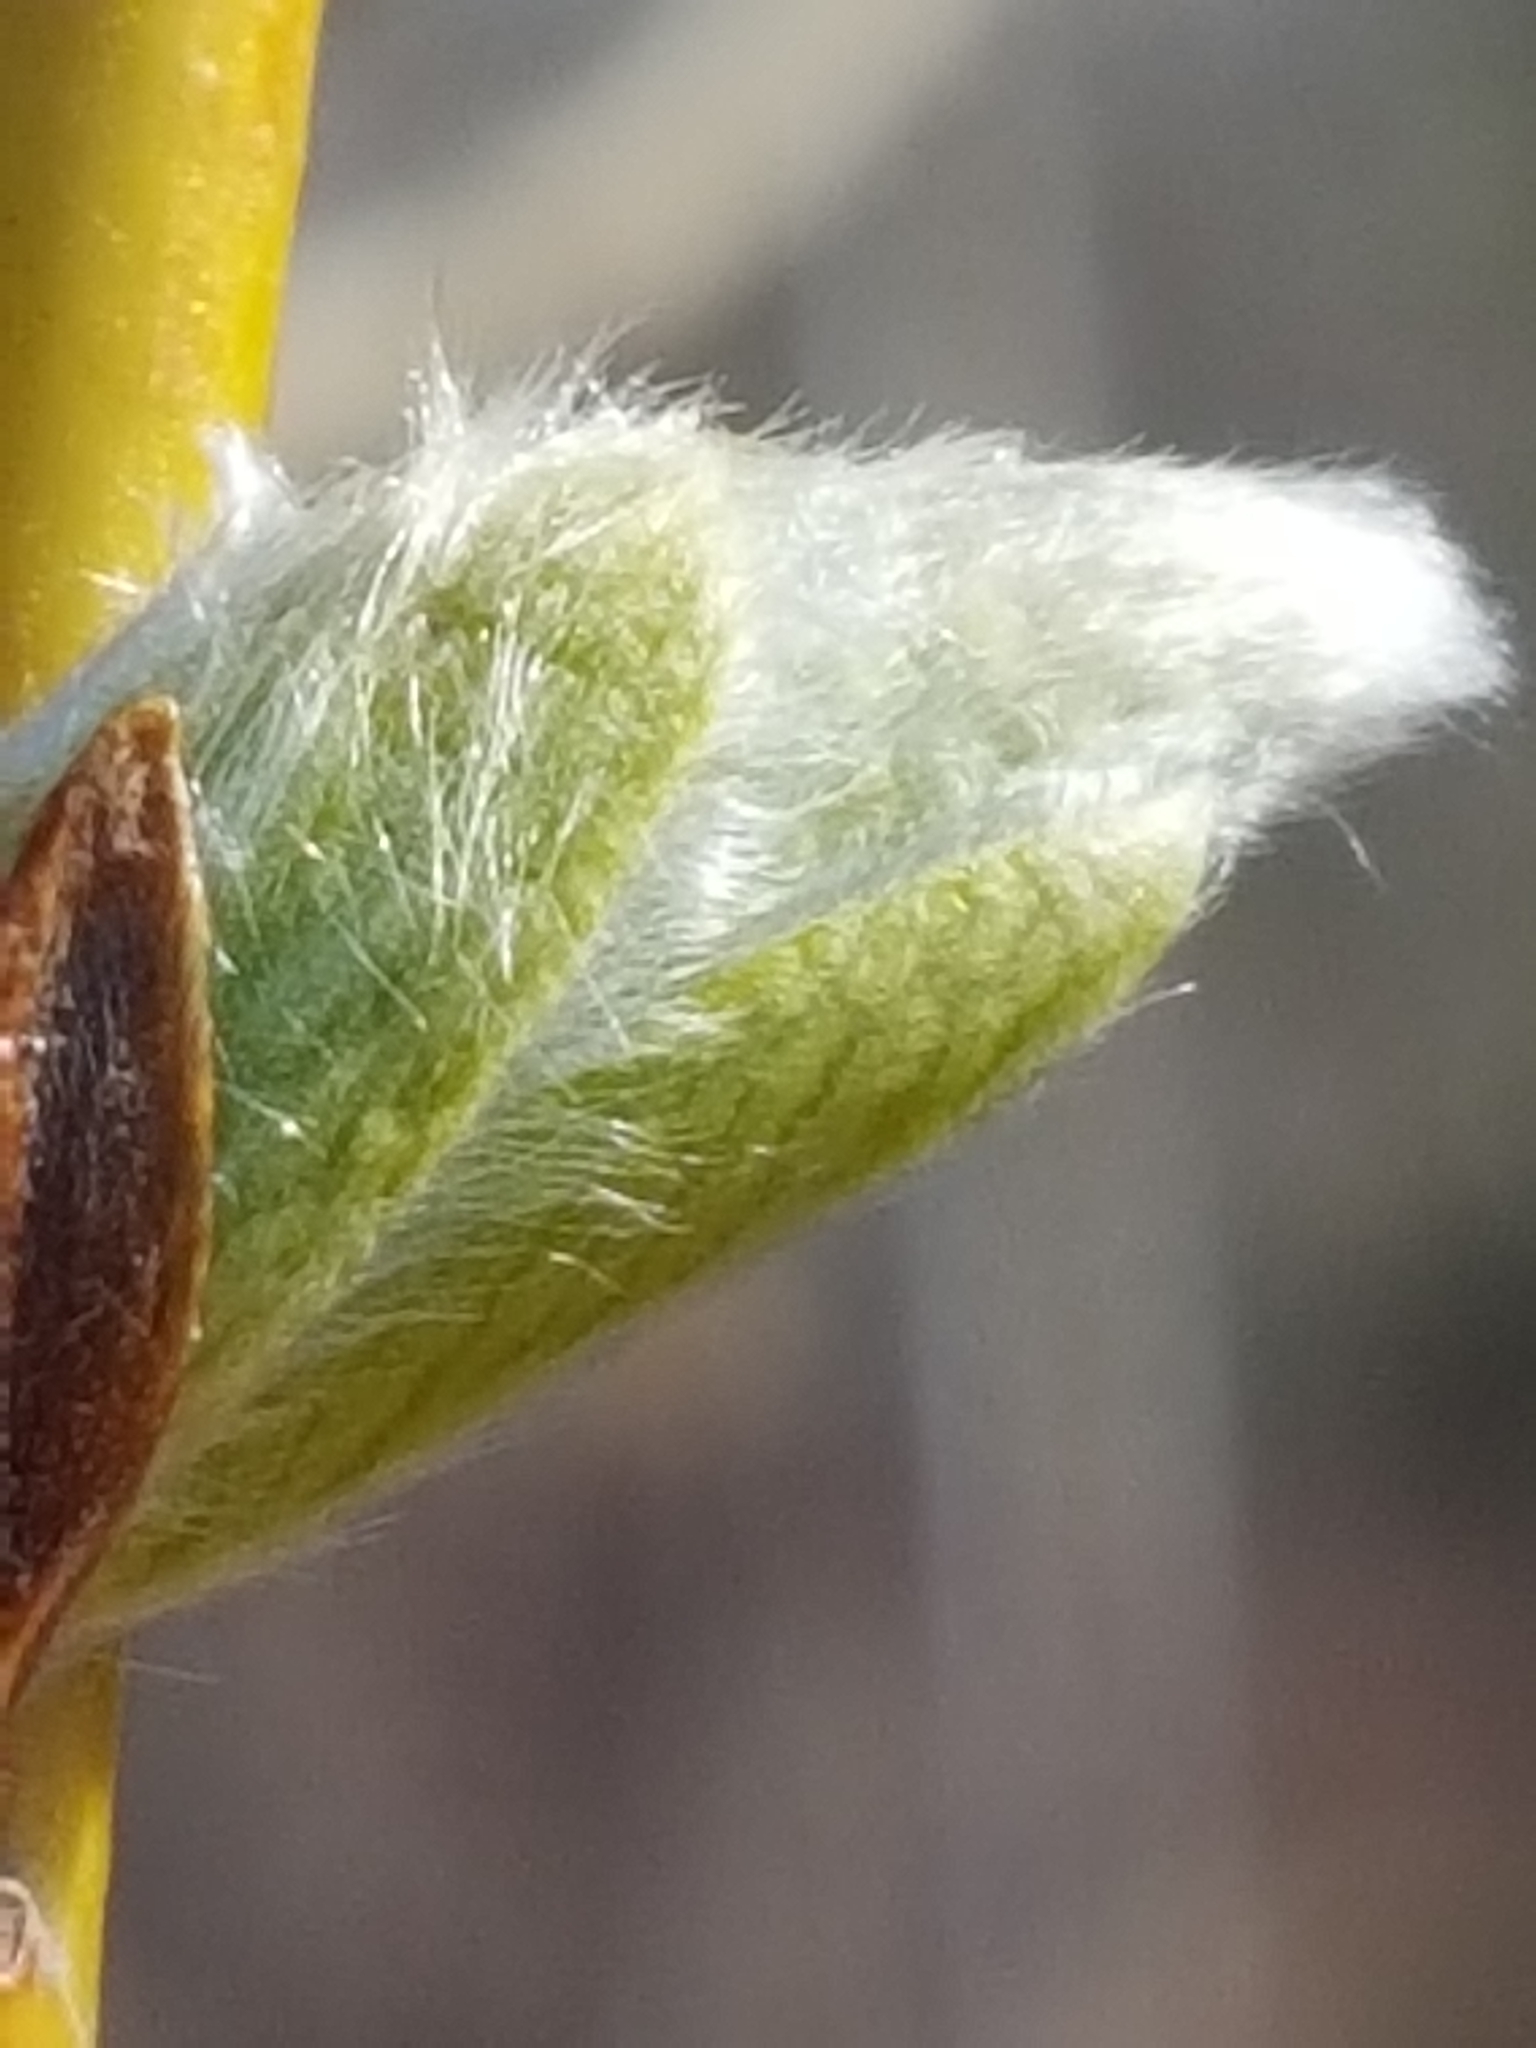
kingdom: Plantae
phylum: Tracheophyta
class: Magnoliopsida
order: Malpighiales
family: Salicaceae
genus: Salix
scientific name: Salix fragilis
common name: Crack willow
